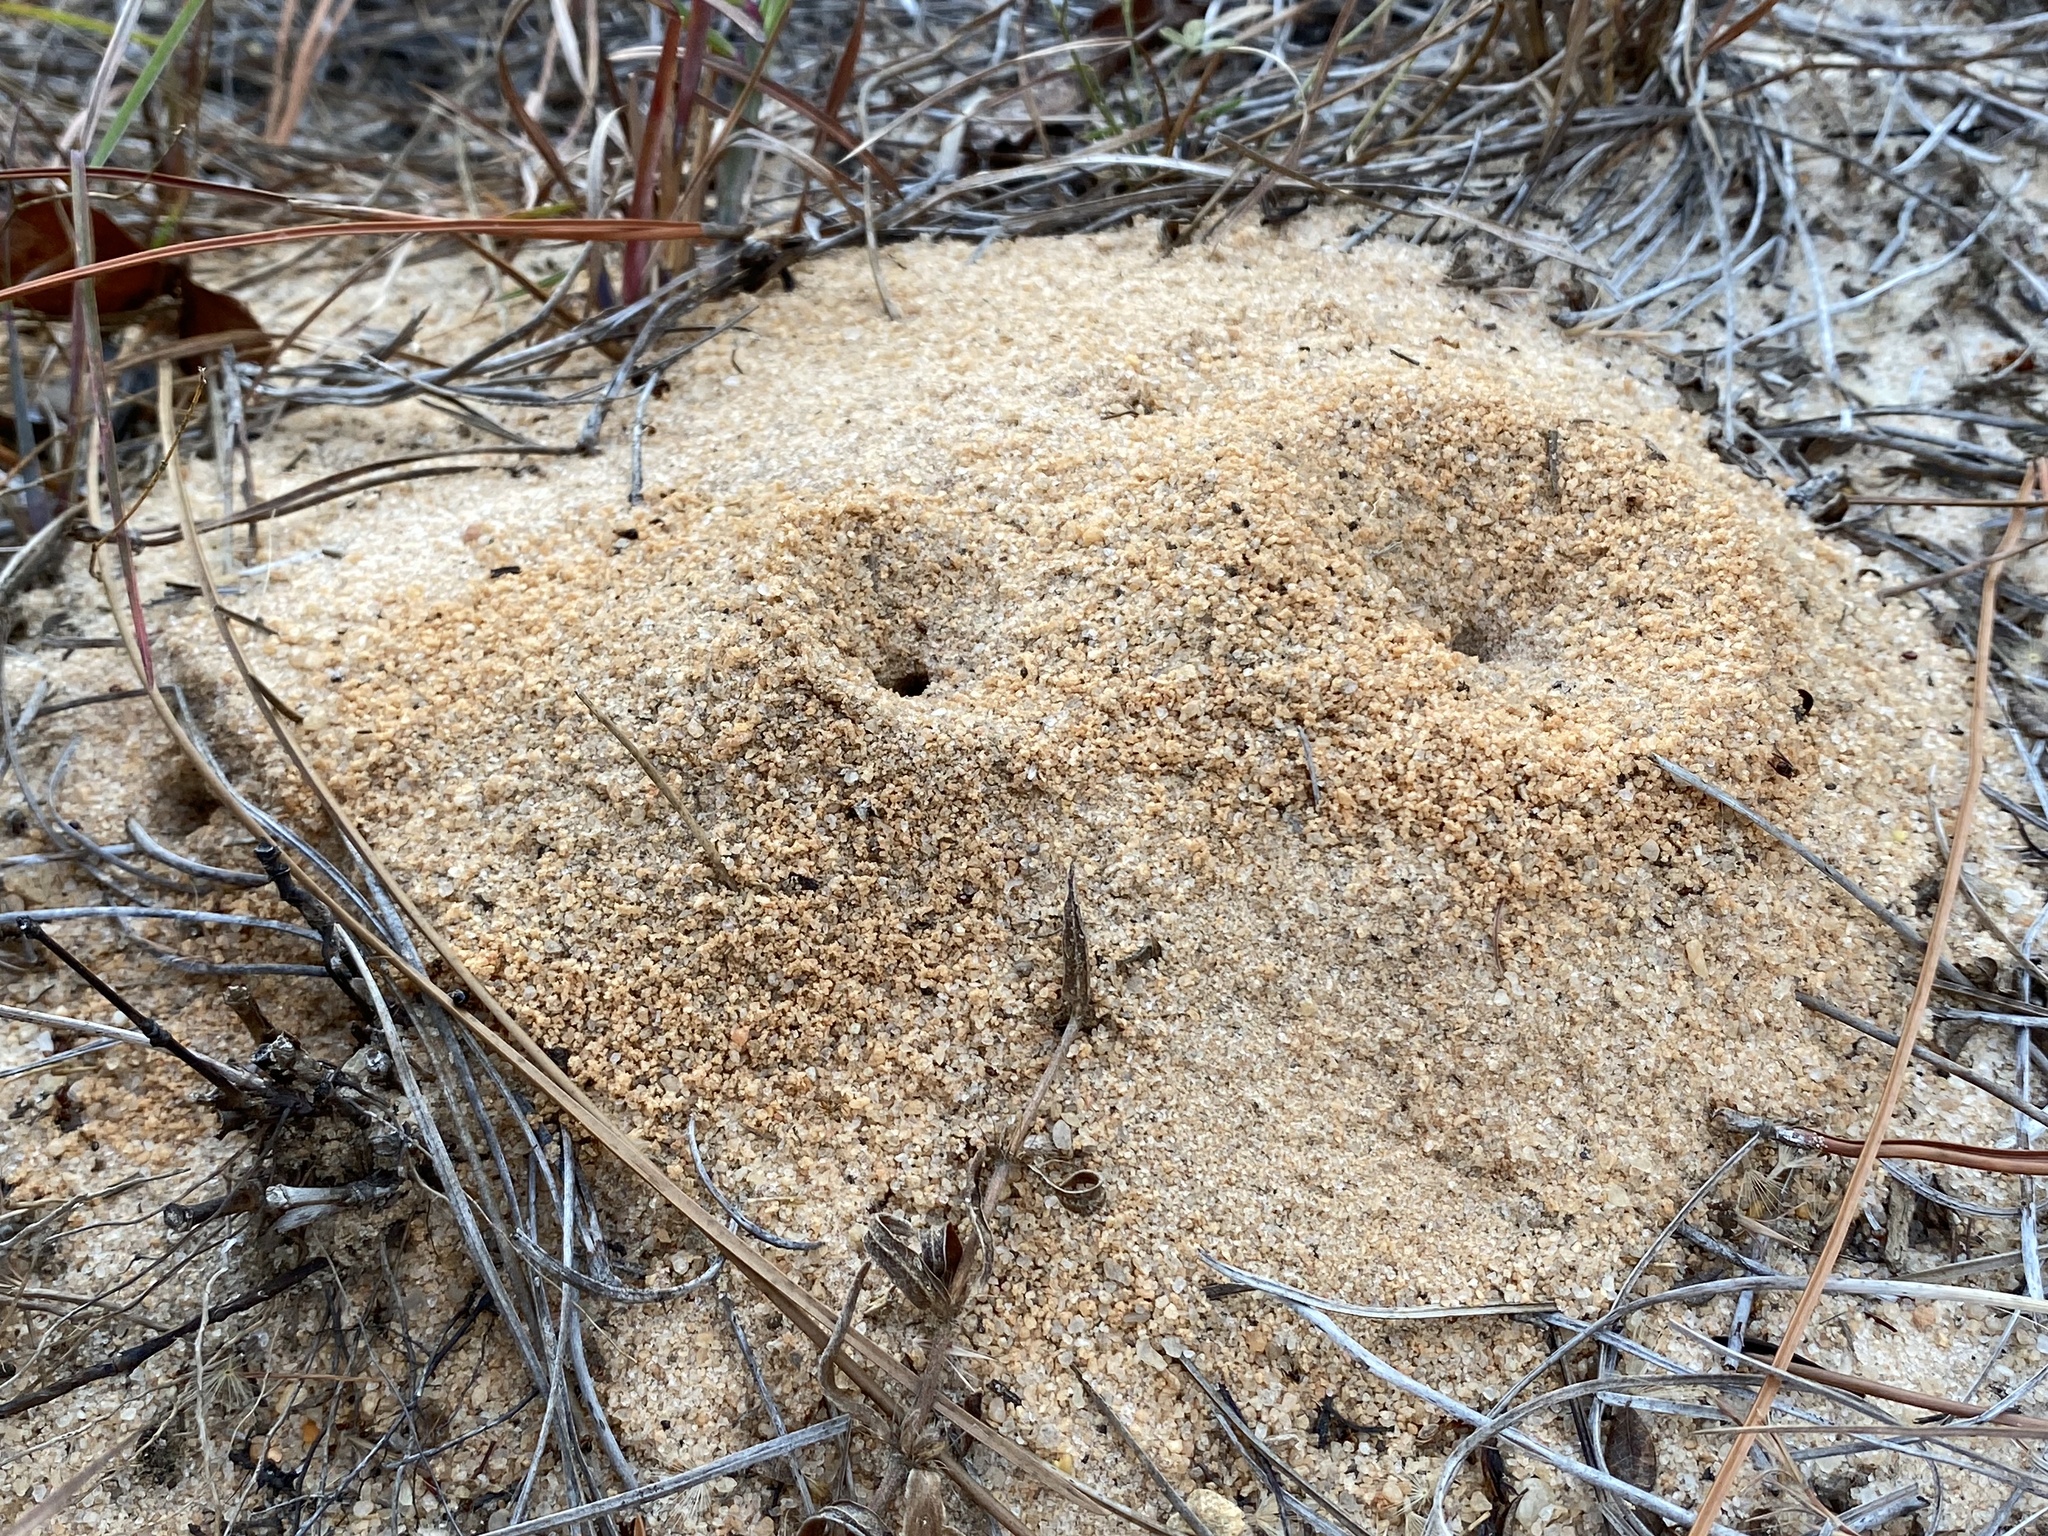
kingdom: Animalia
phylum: Arthropoda
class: Insecta
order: Hymenoptera
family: Formicidae
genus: Dorymyrmex
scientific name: Dorymyrmex bureni
